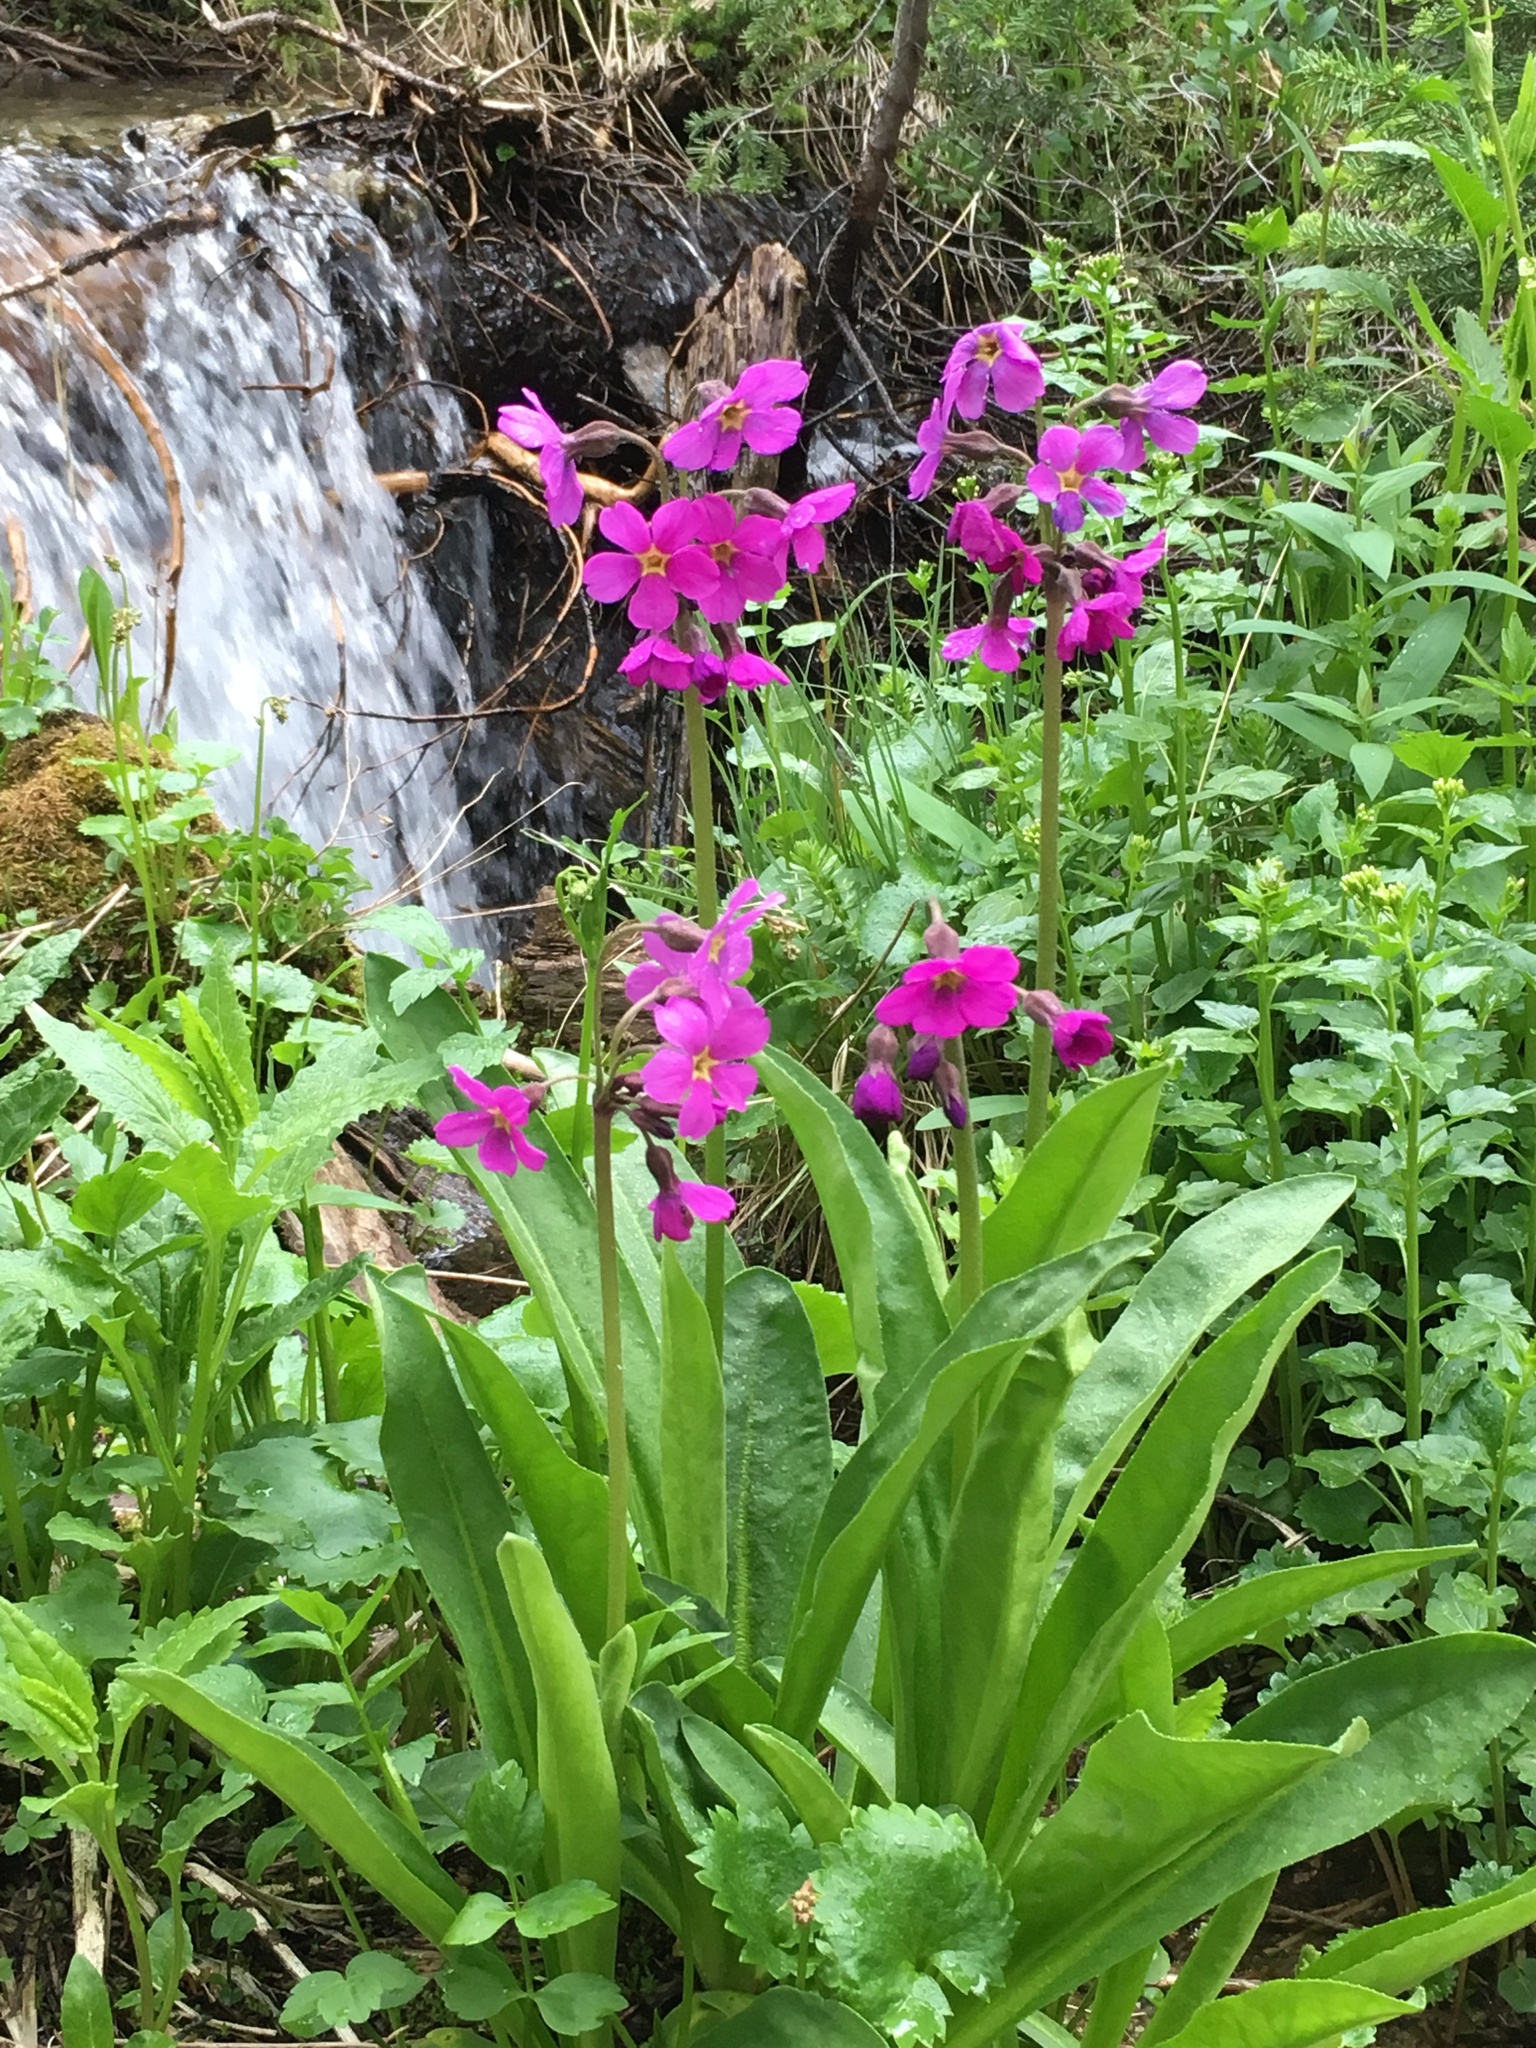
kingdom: Plantae
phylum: Tracheophyta
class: Magnoliopsida
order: Ericales
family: Primulaceae
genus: Primula
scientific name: Primula parryi
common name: Parry's primrose
